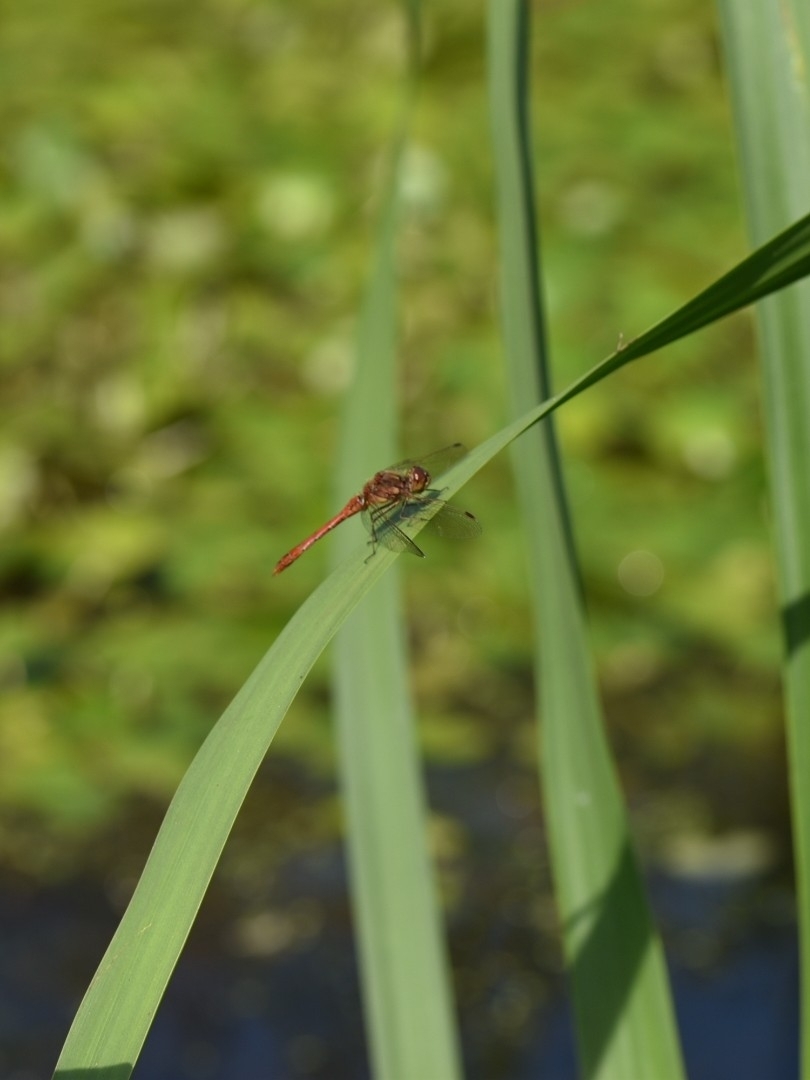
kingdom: Animalia
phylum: Arthropoda
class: Insecta
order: Odonata
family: Libellulidae
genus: Sympetrum
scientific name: Sympetrum vulgatum
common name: Vagrant darter
